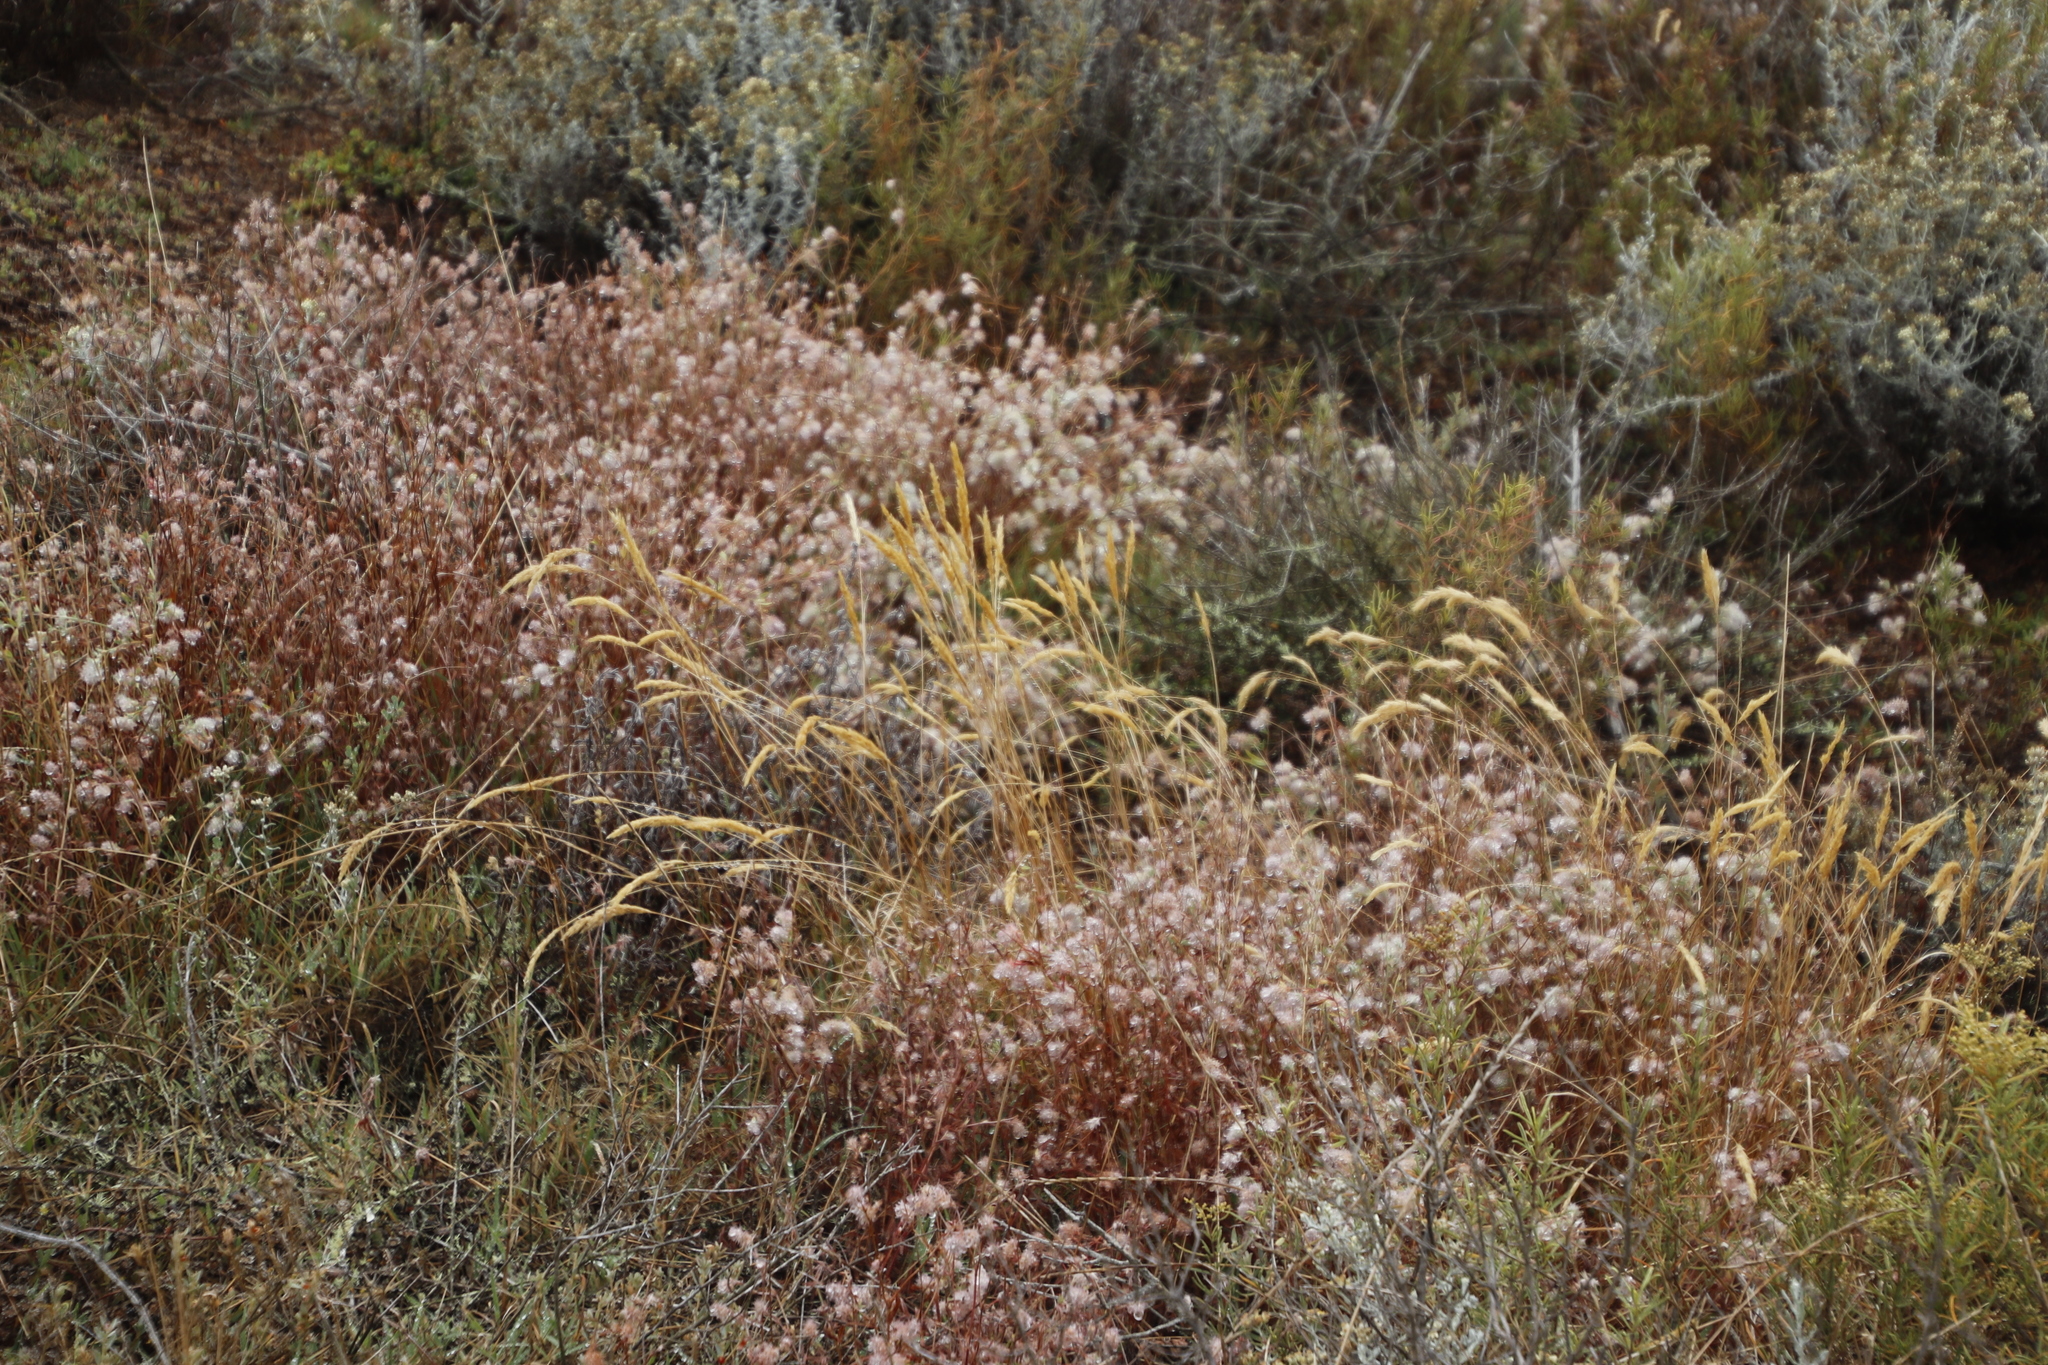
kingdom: Plantae
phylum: Tracheophyta
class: Magnoliopsida
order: Fabales
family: Fabaceae
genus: Trifolium
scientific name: Trifolium arvense
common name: Hare's-foot clover
